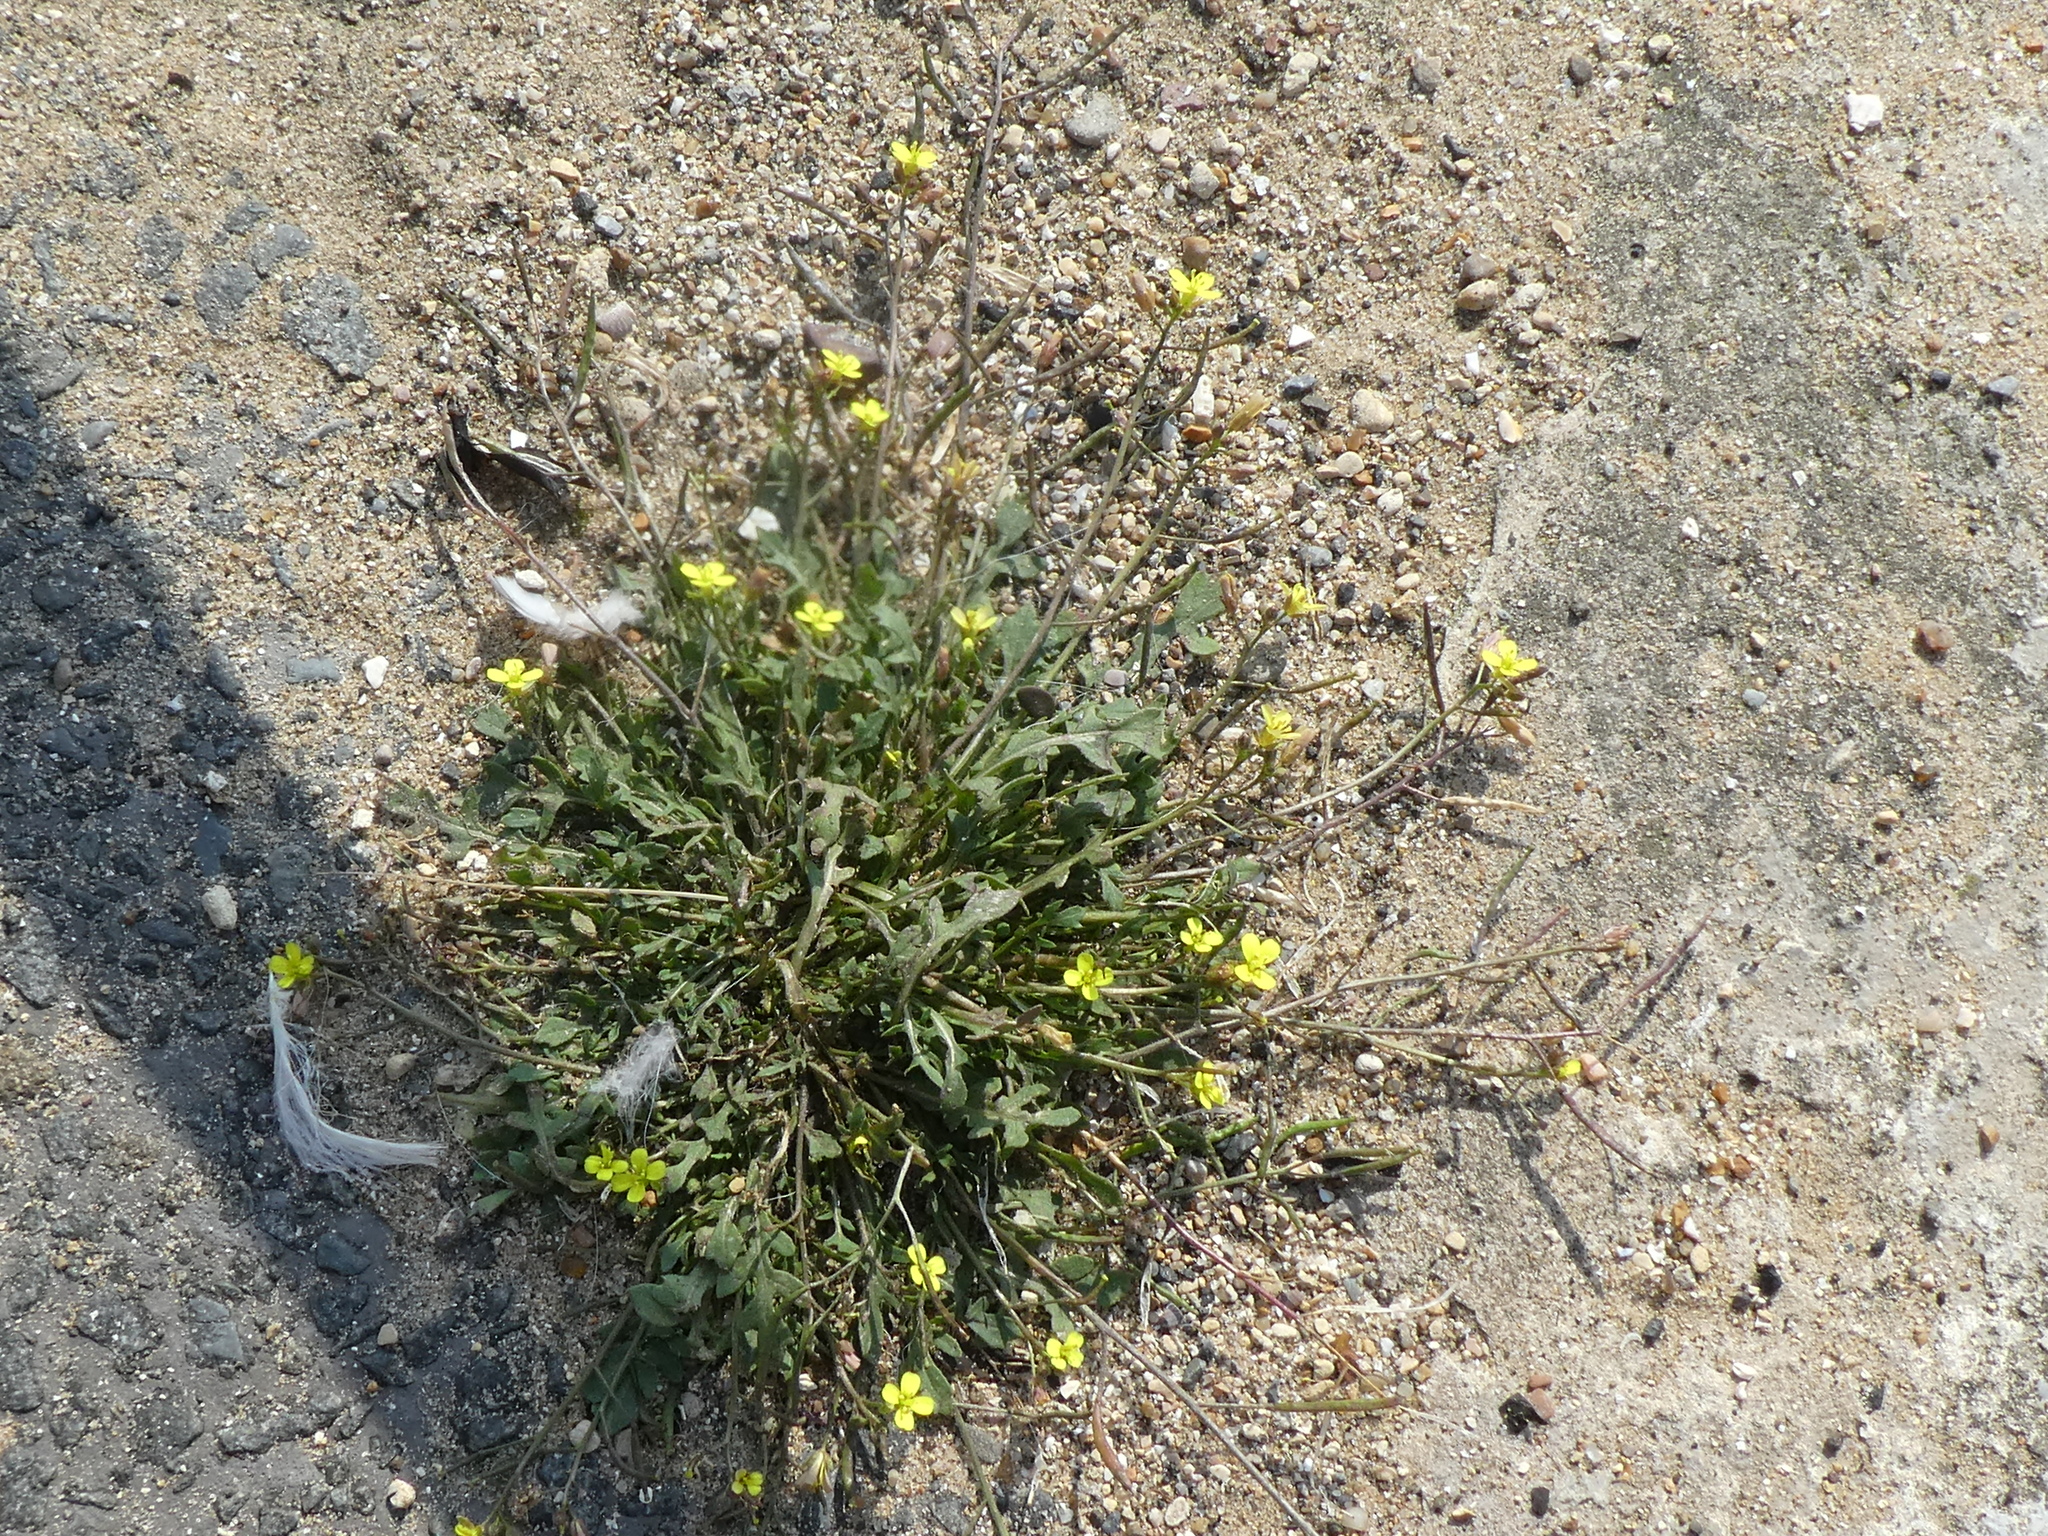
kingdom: Plantae
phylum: Tracheophyta
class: Magnoliopsida
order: Brassicales
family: Brassicaceae
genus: Diplotaxis
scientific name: Diplotaxis muralis
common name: Annual wall-rocket
